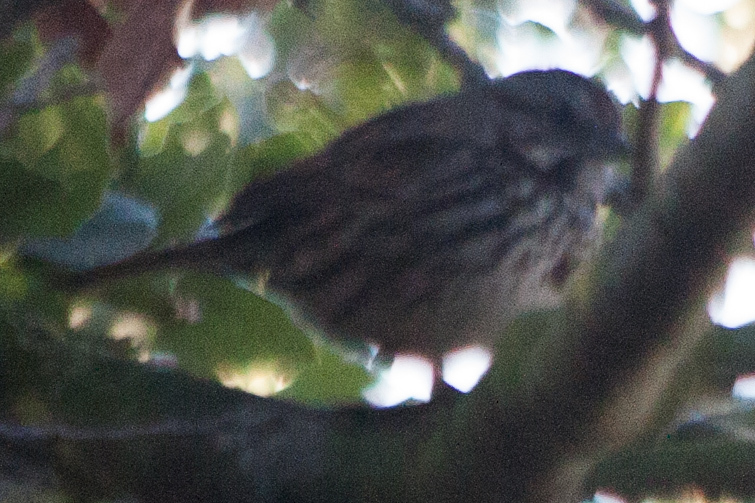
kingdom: Animalia
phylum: Chordata
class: Aves
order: Passeriformes
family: Passerellidae
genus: Melospiza
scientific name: Melospiza melodia
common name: Song sparrow
